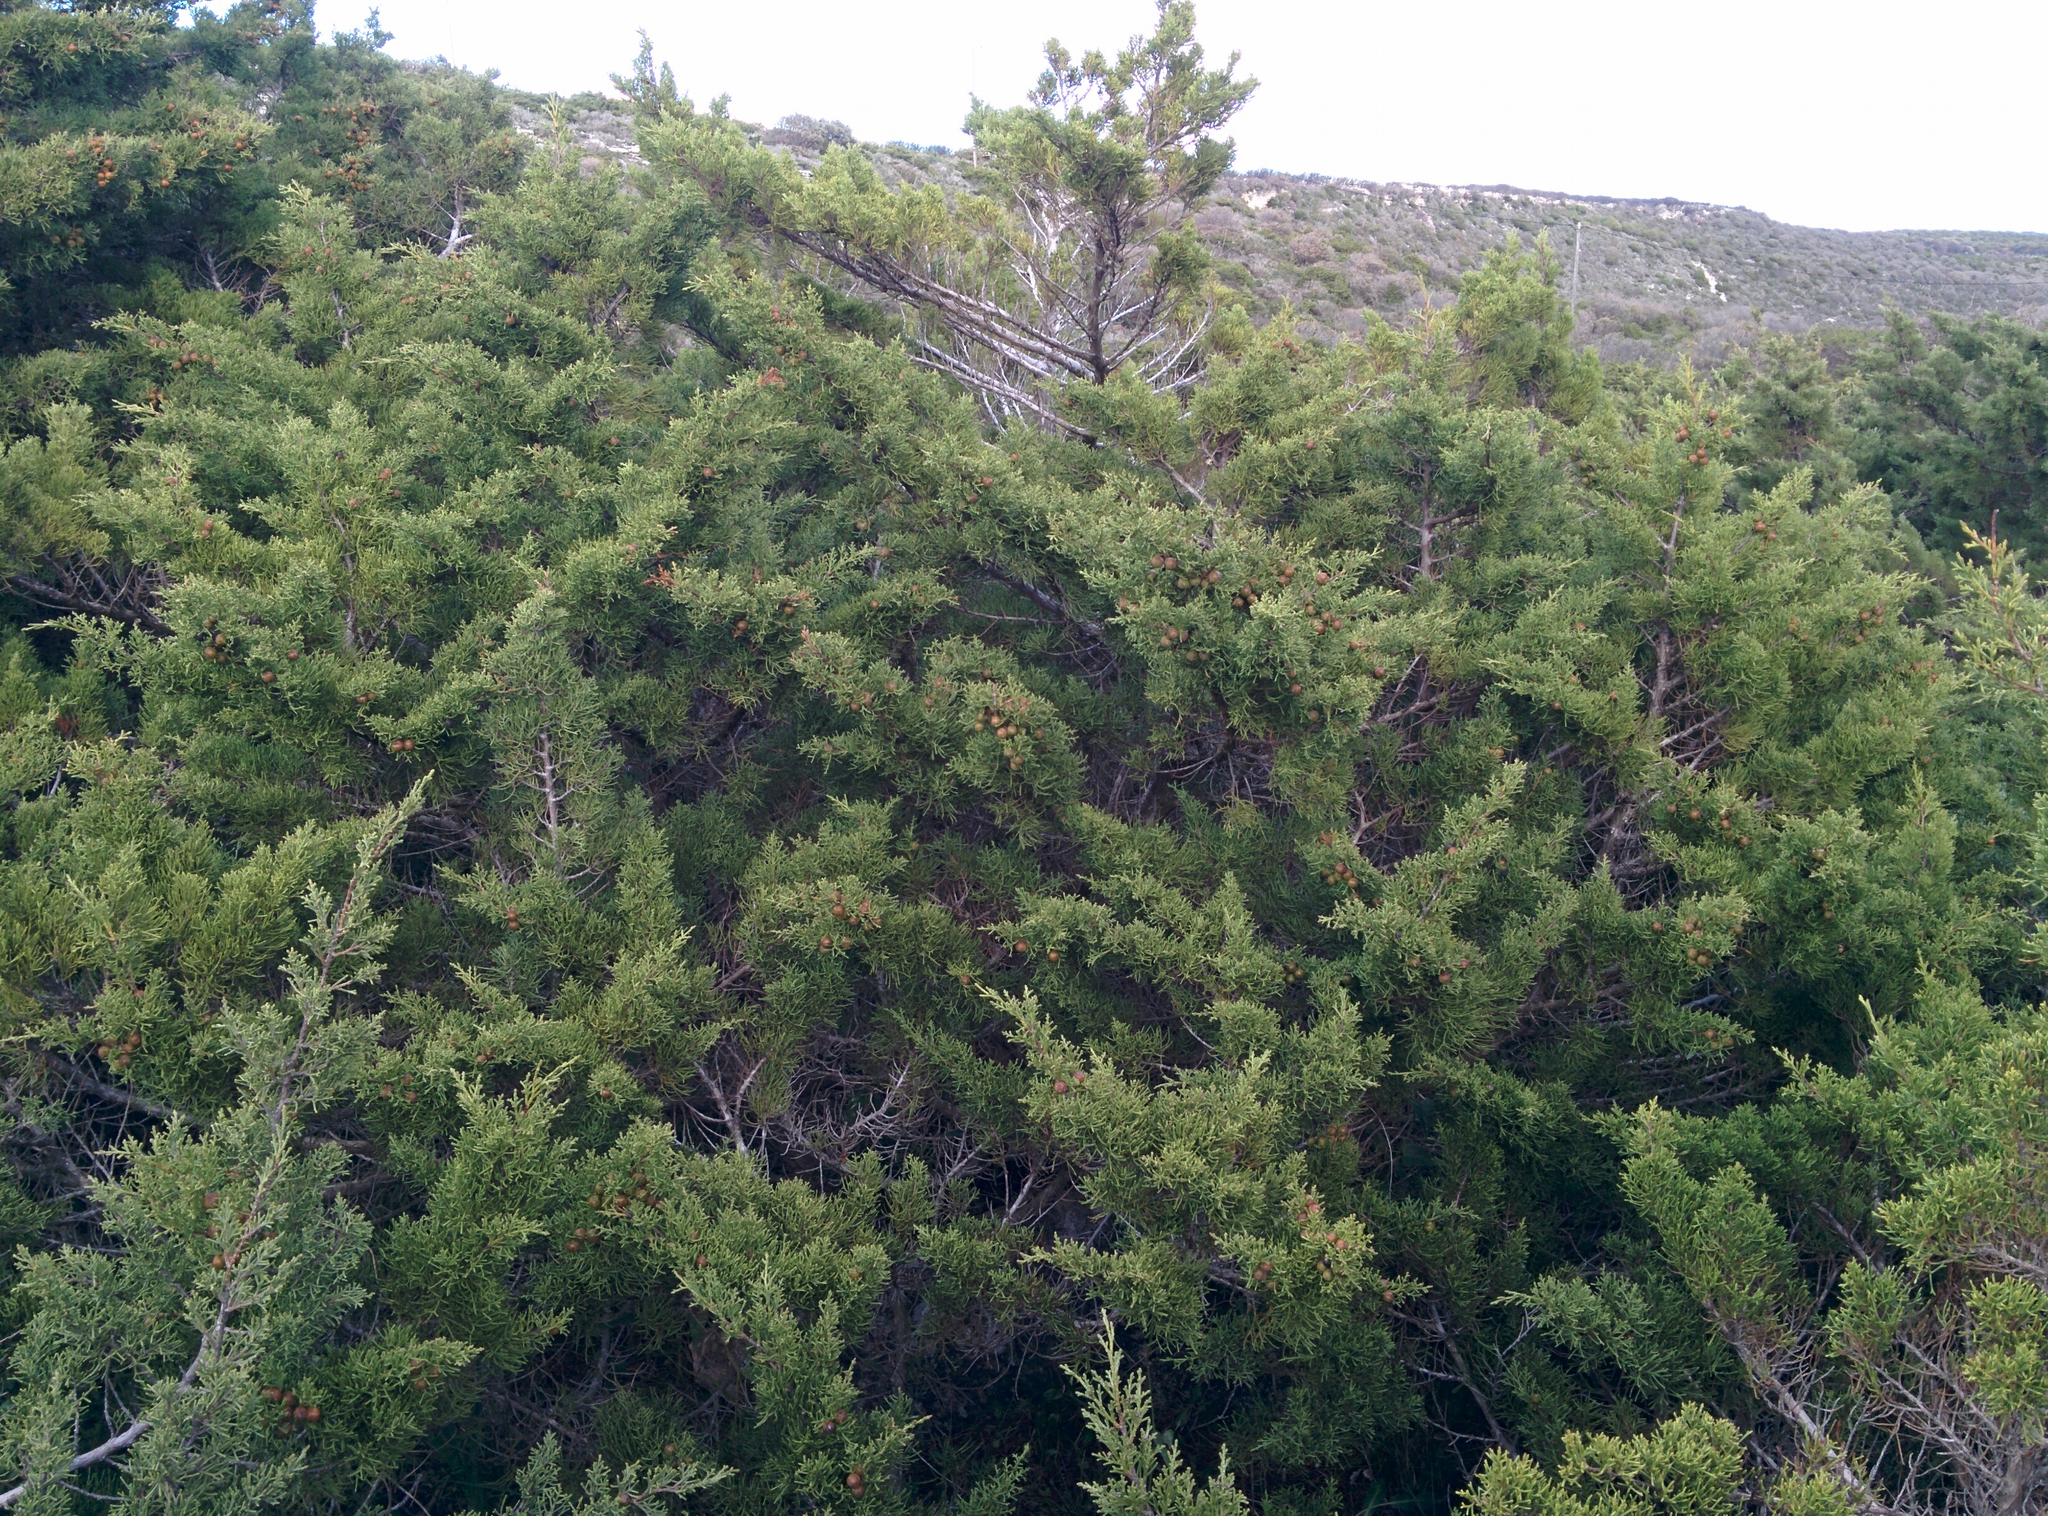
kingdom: Plantae
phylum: Tracheophyta
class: Pinopsida
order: Pinales
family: Cupressaceae
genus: Juniperus
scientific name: Juniperus phoenicea
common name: Phoenician juniper
